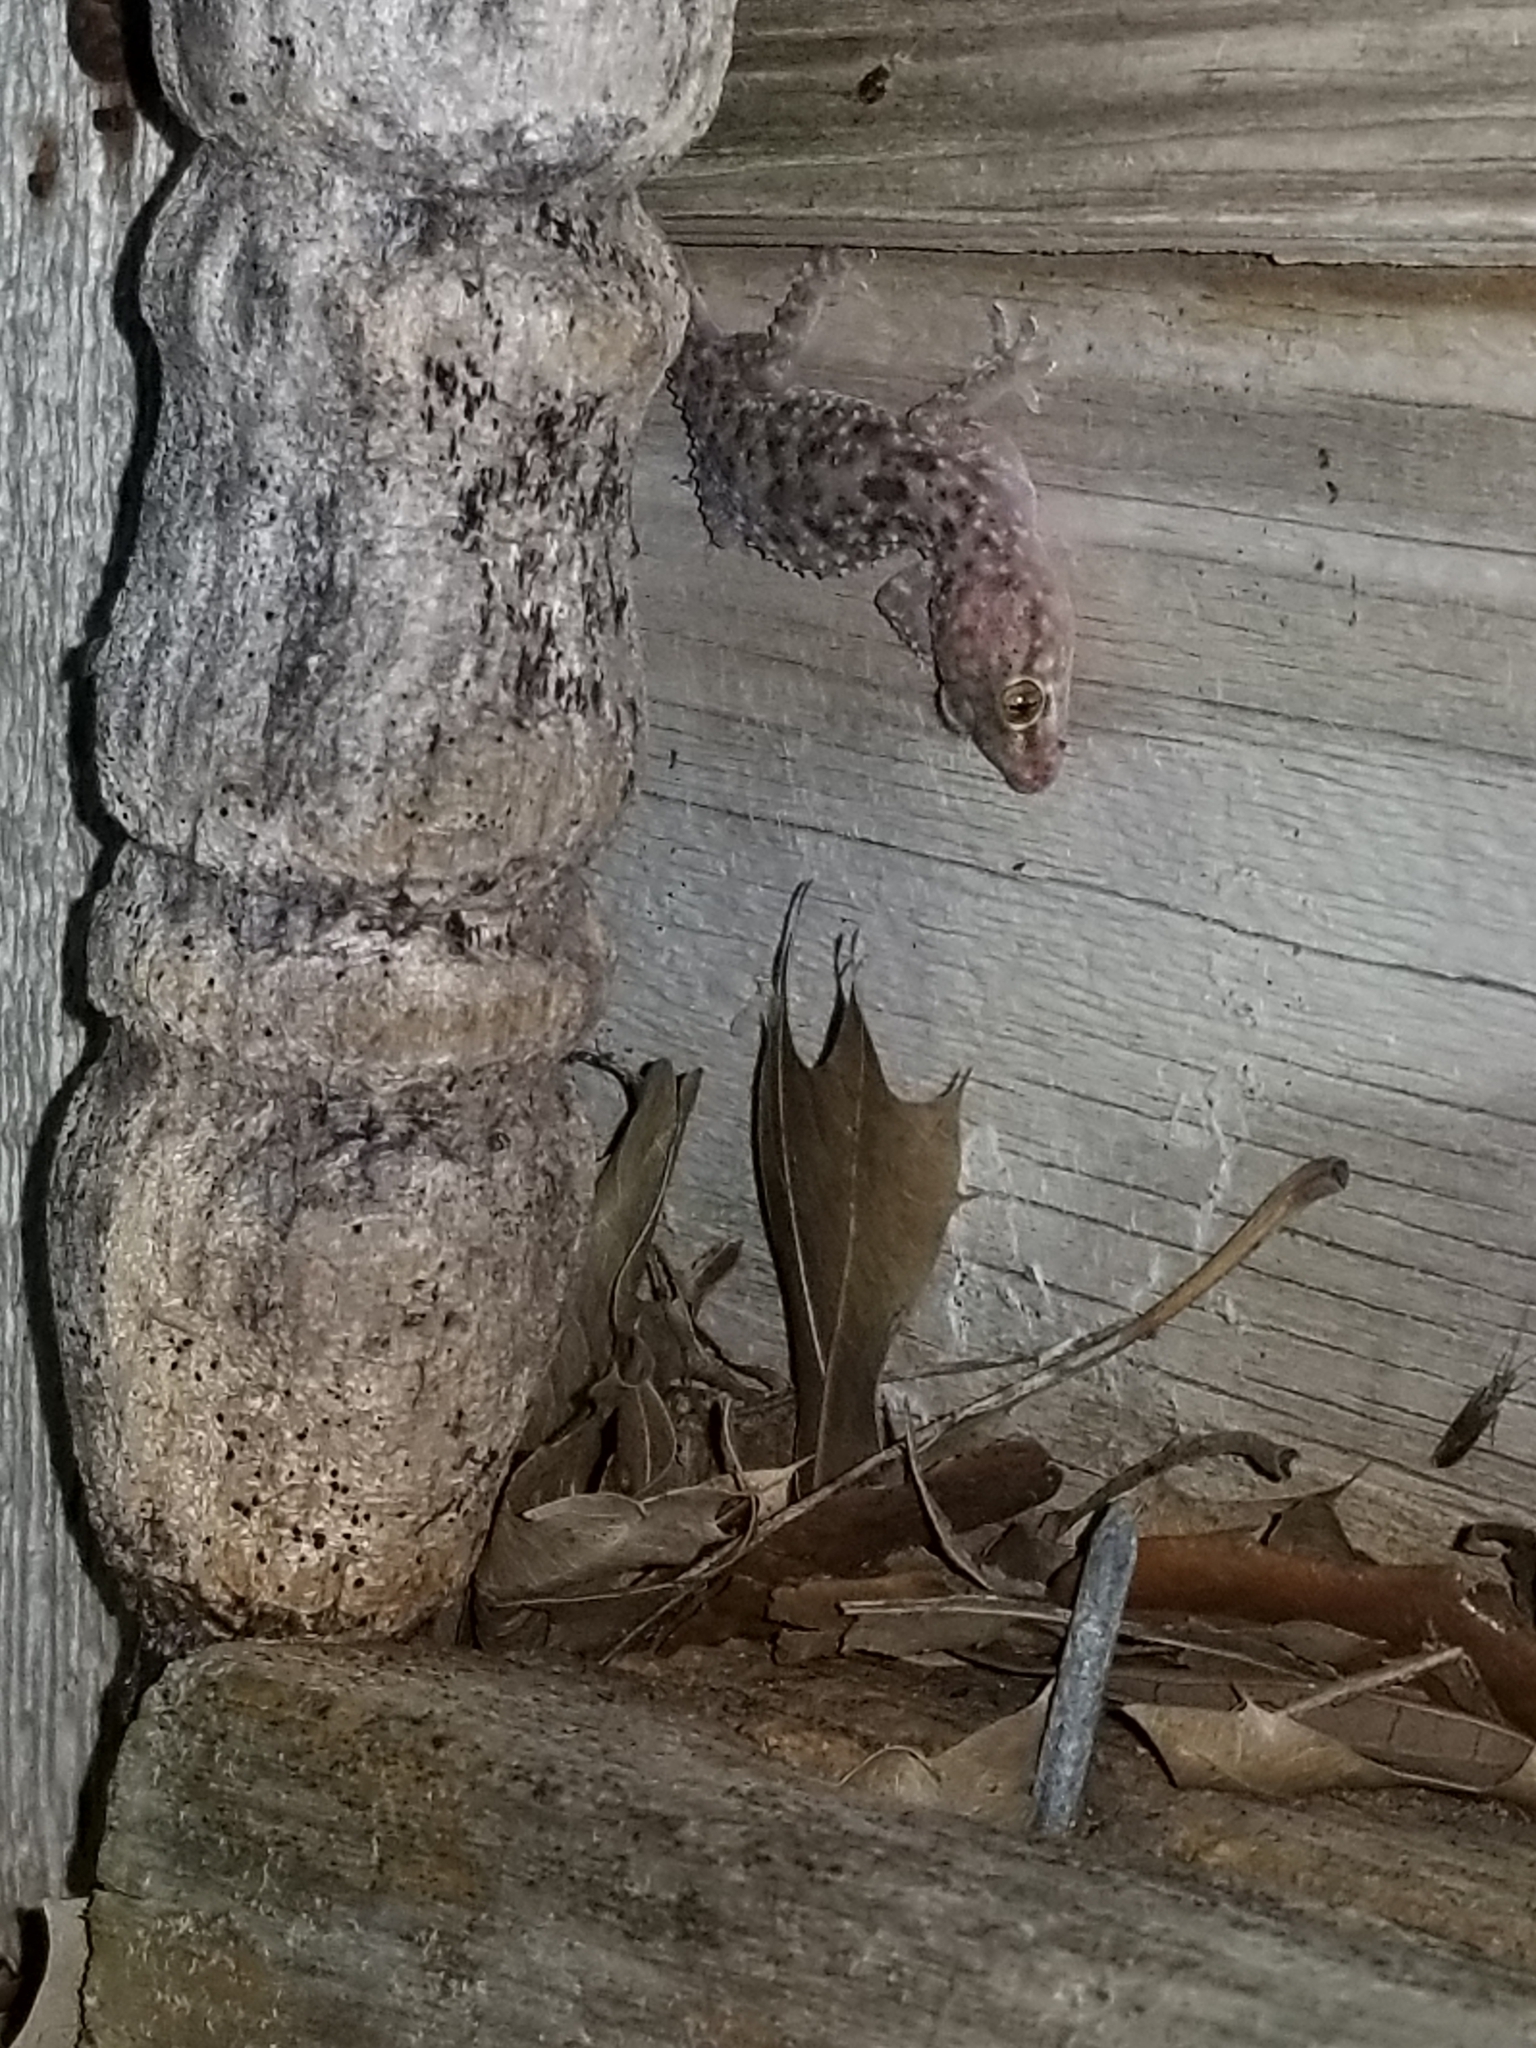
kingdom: Animalia
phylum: Chordata
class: Squamata
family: Gekkonidae
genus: Hemidactylus
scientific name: Hemidactylus turcicus
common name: Turkish gecko
